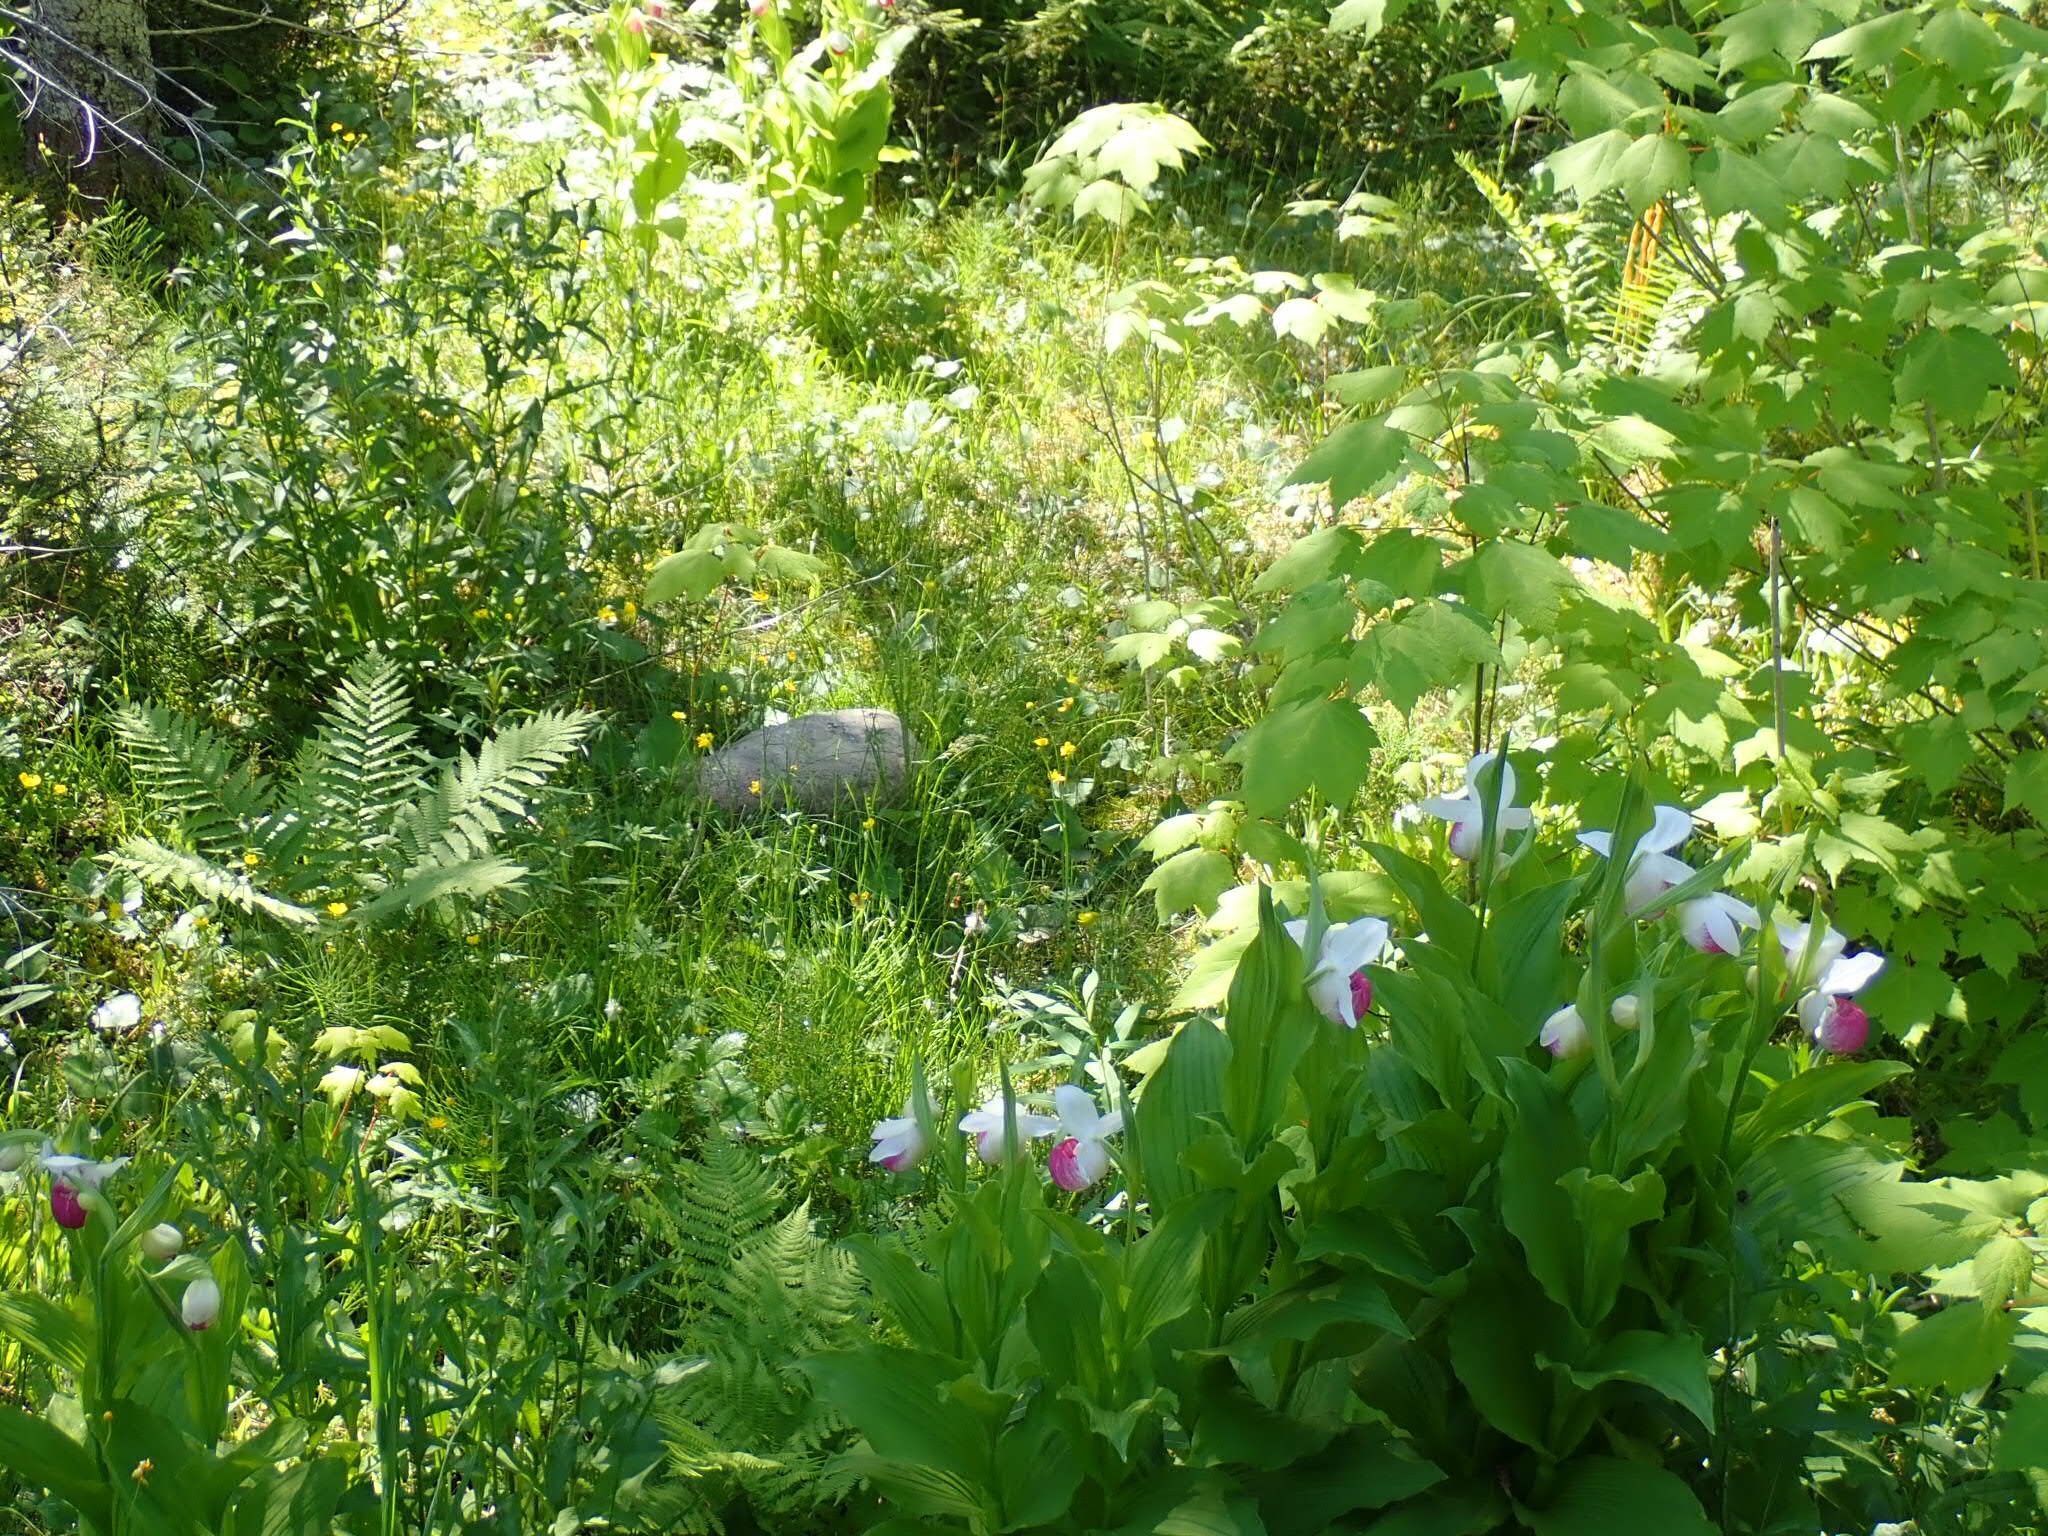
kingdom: Plantae
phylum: Tracheophyta
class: Liliopsida
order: Asparagales
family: Orchidaceae
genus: Cypripedium
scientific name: Cypripedium reginae
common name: Queen lady's-slipper
